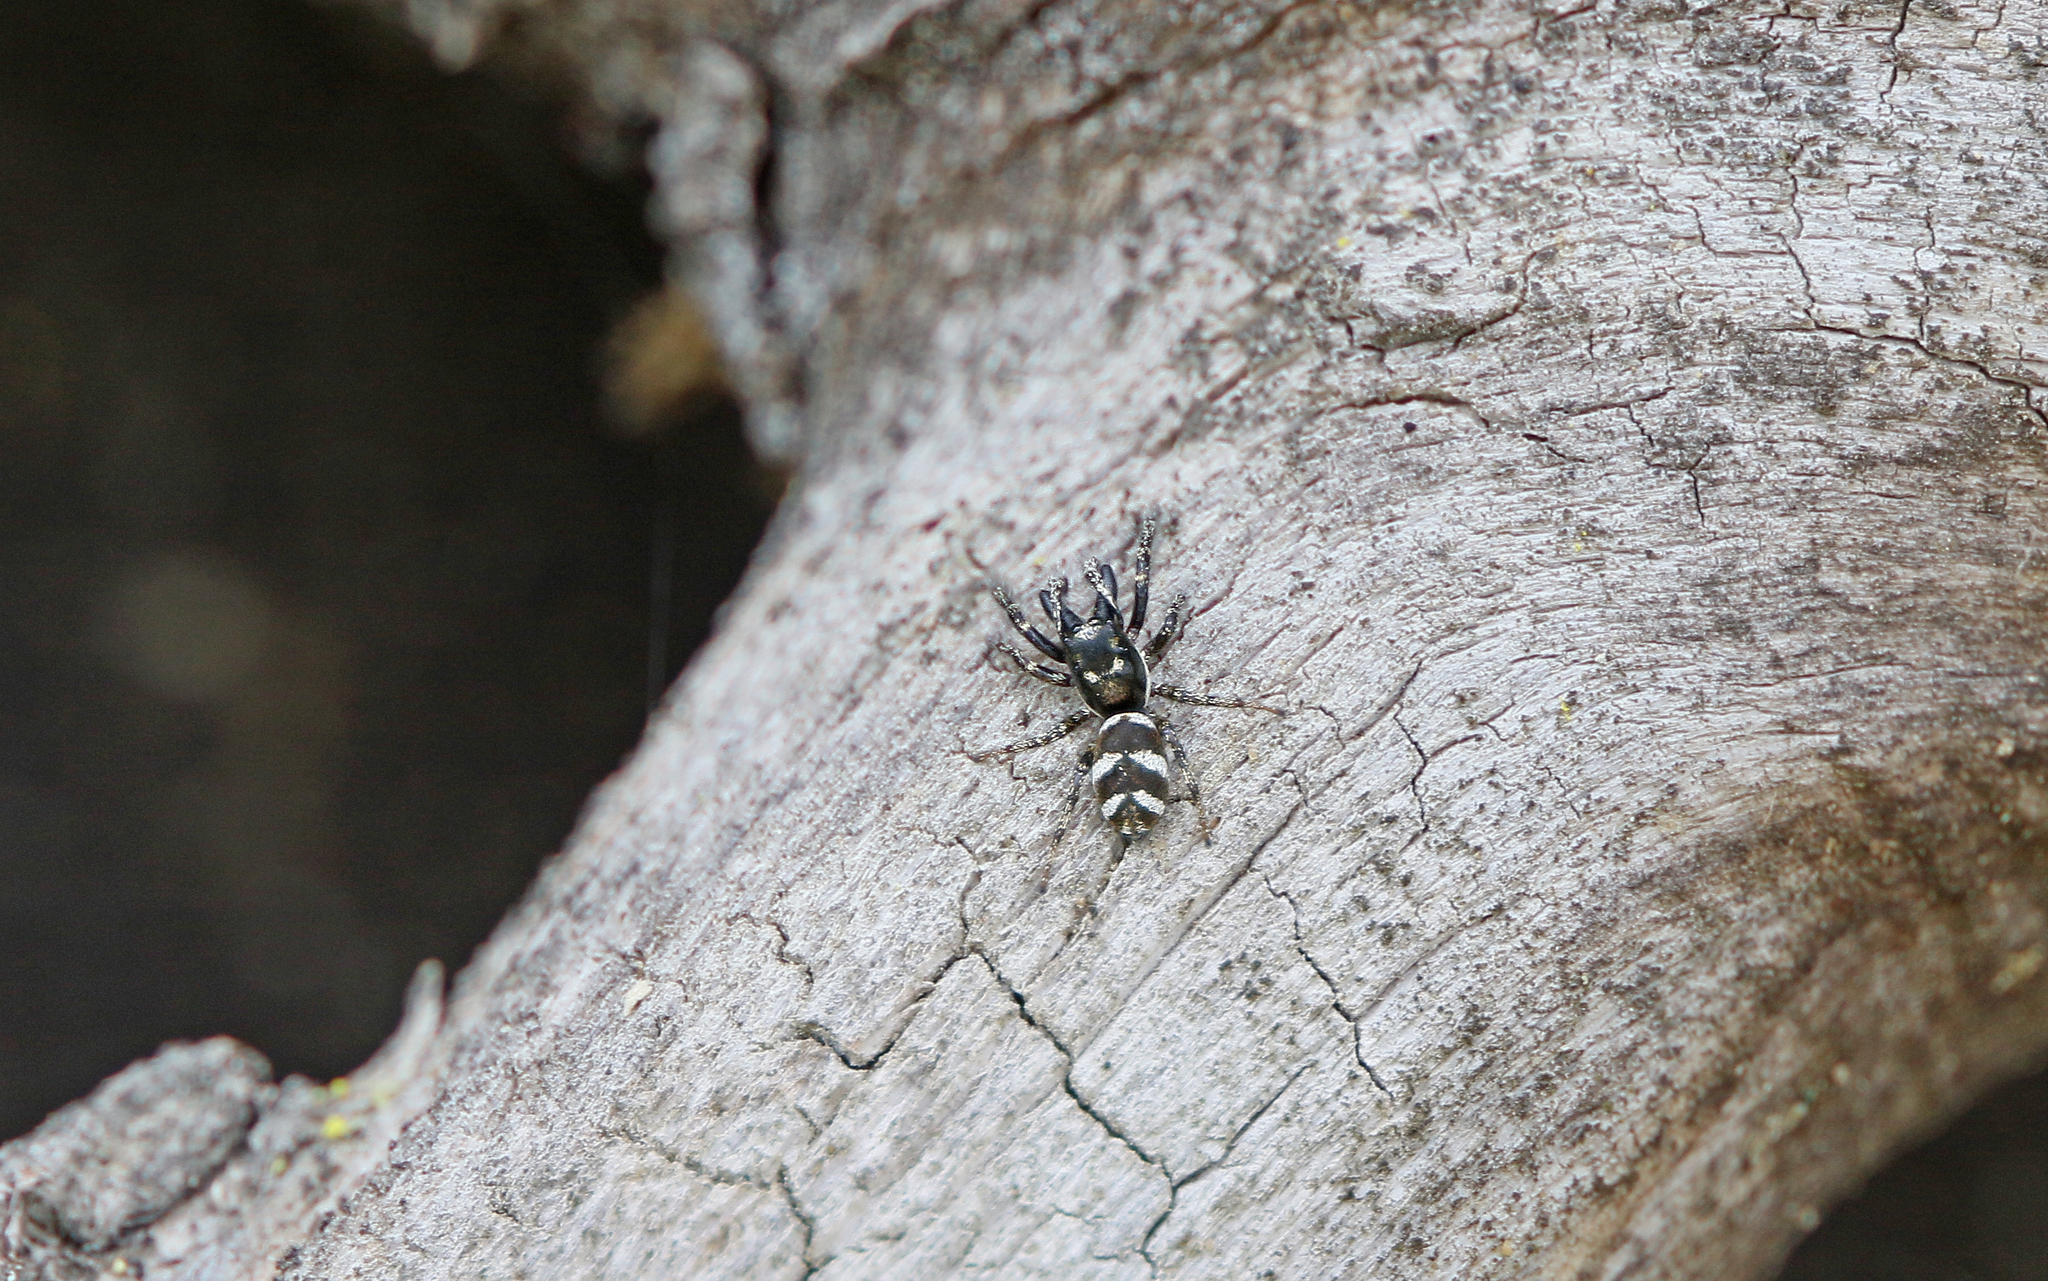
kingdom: Animalia
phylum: Arthropoda
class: Arachnida
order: Araneae
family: Salticidae
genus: Salticus
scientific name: Salticus scenicus
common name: Zebra jumper
